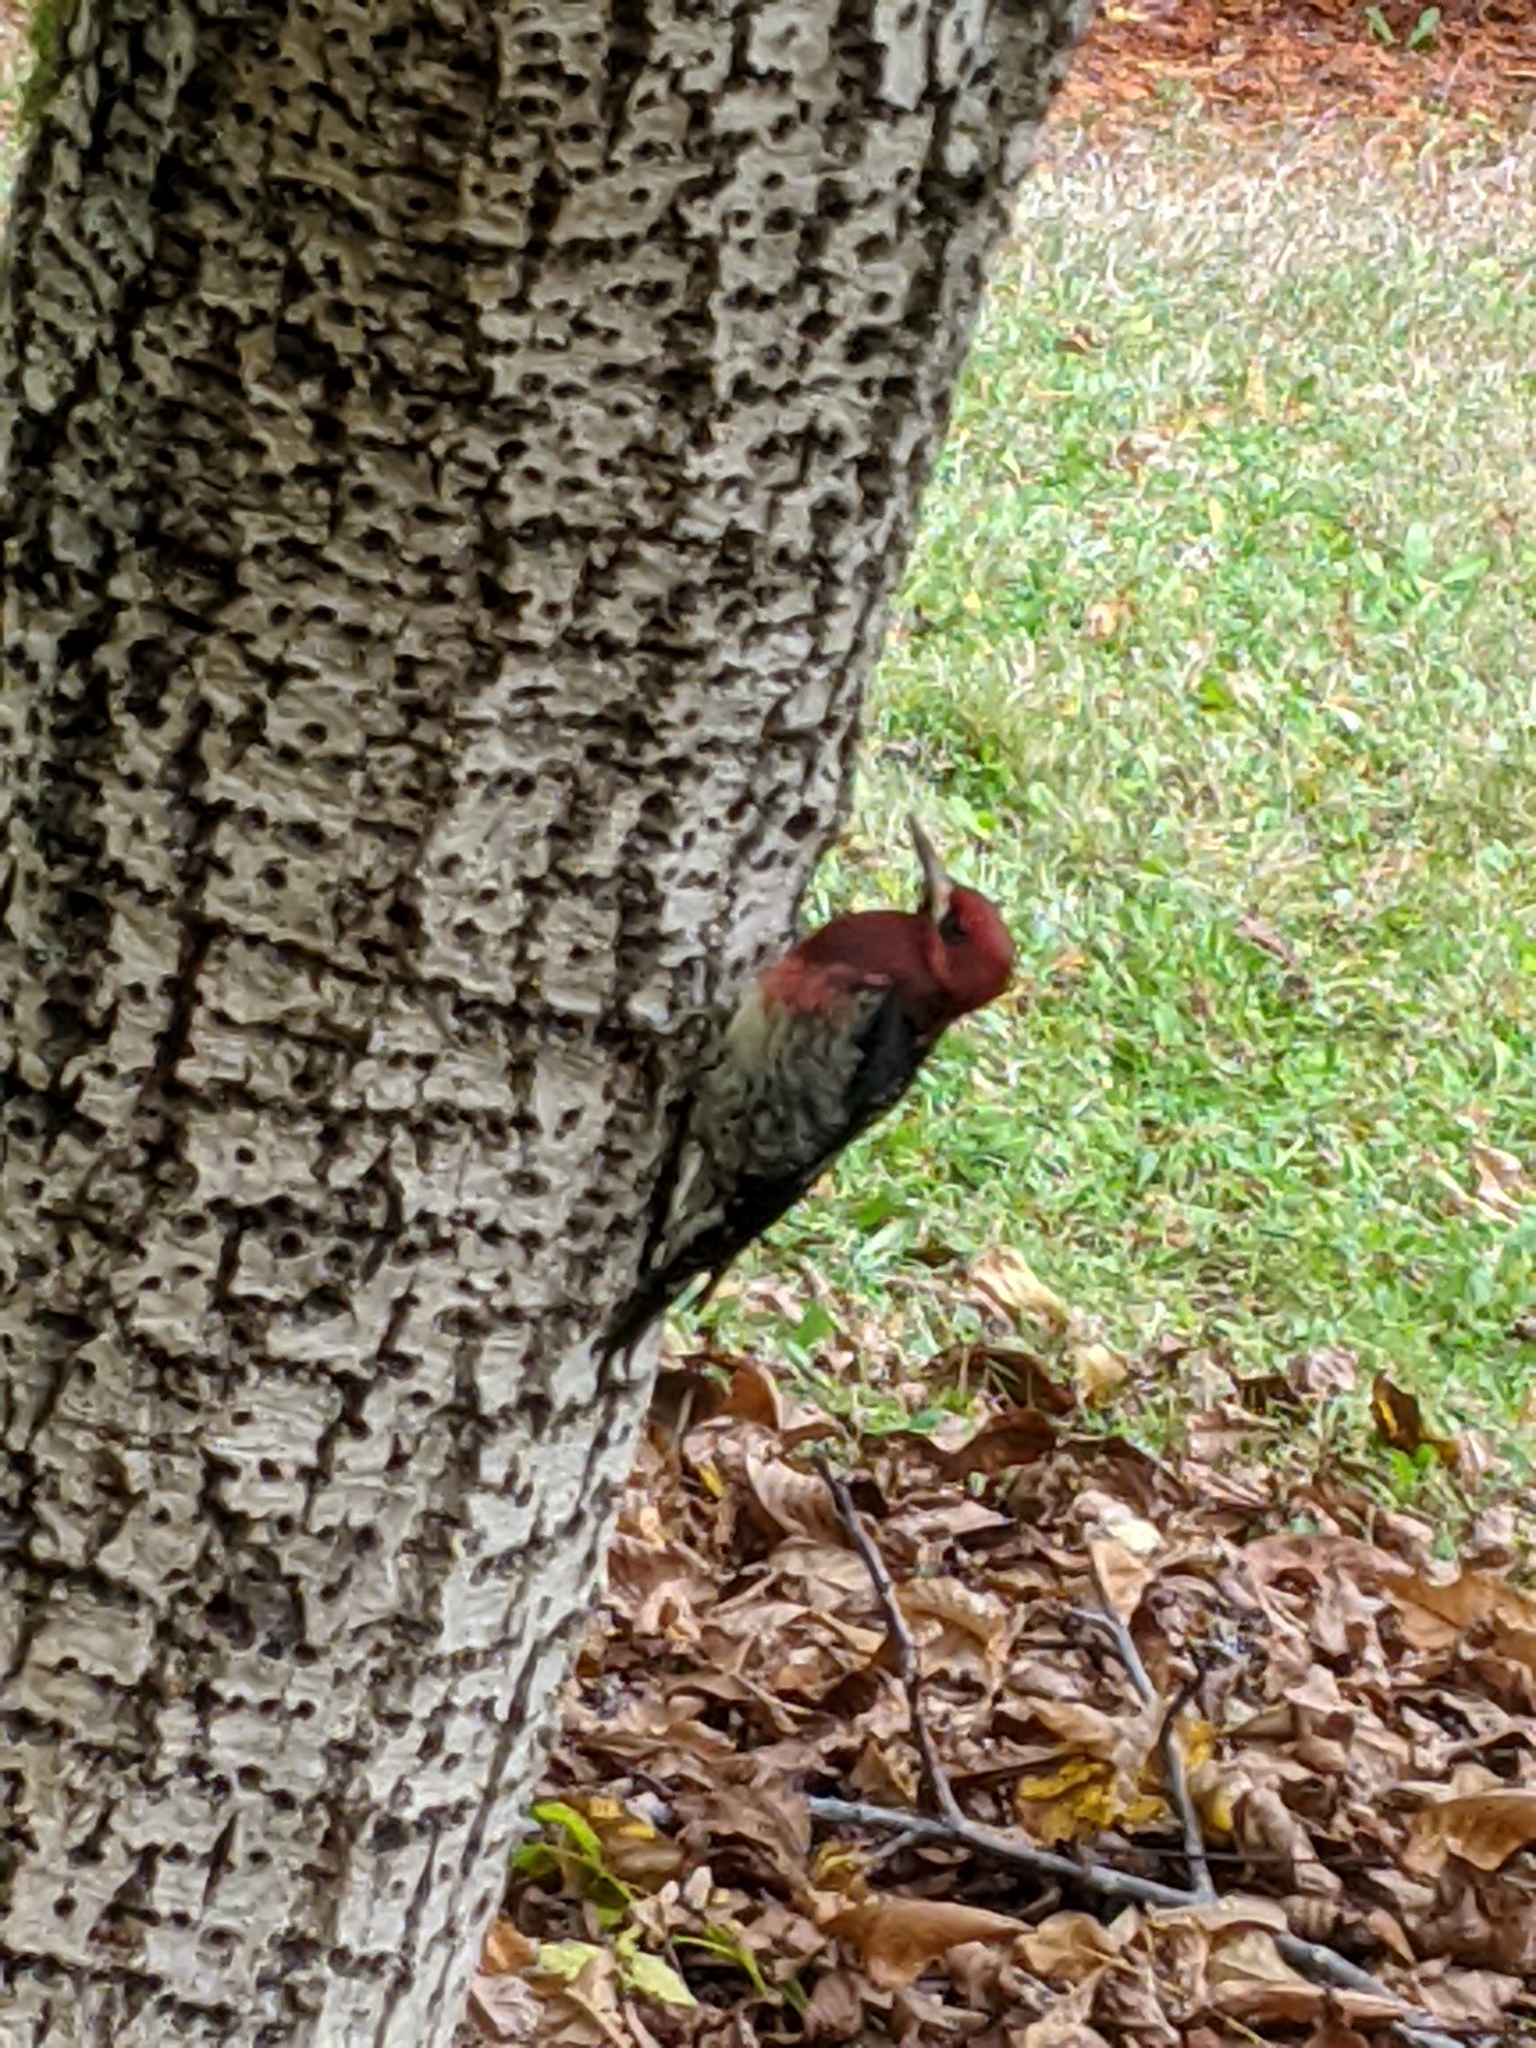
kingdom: Animalia
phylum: Chordata
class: Aves
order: Piciformes
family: Picidae
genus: Sphyrapicus
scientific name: Sphyrapicus ruber
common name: Red-breasted sapsucker
